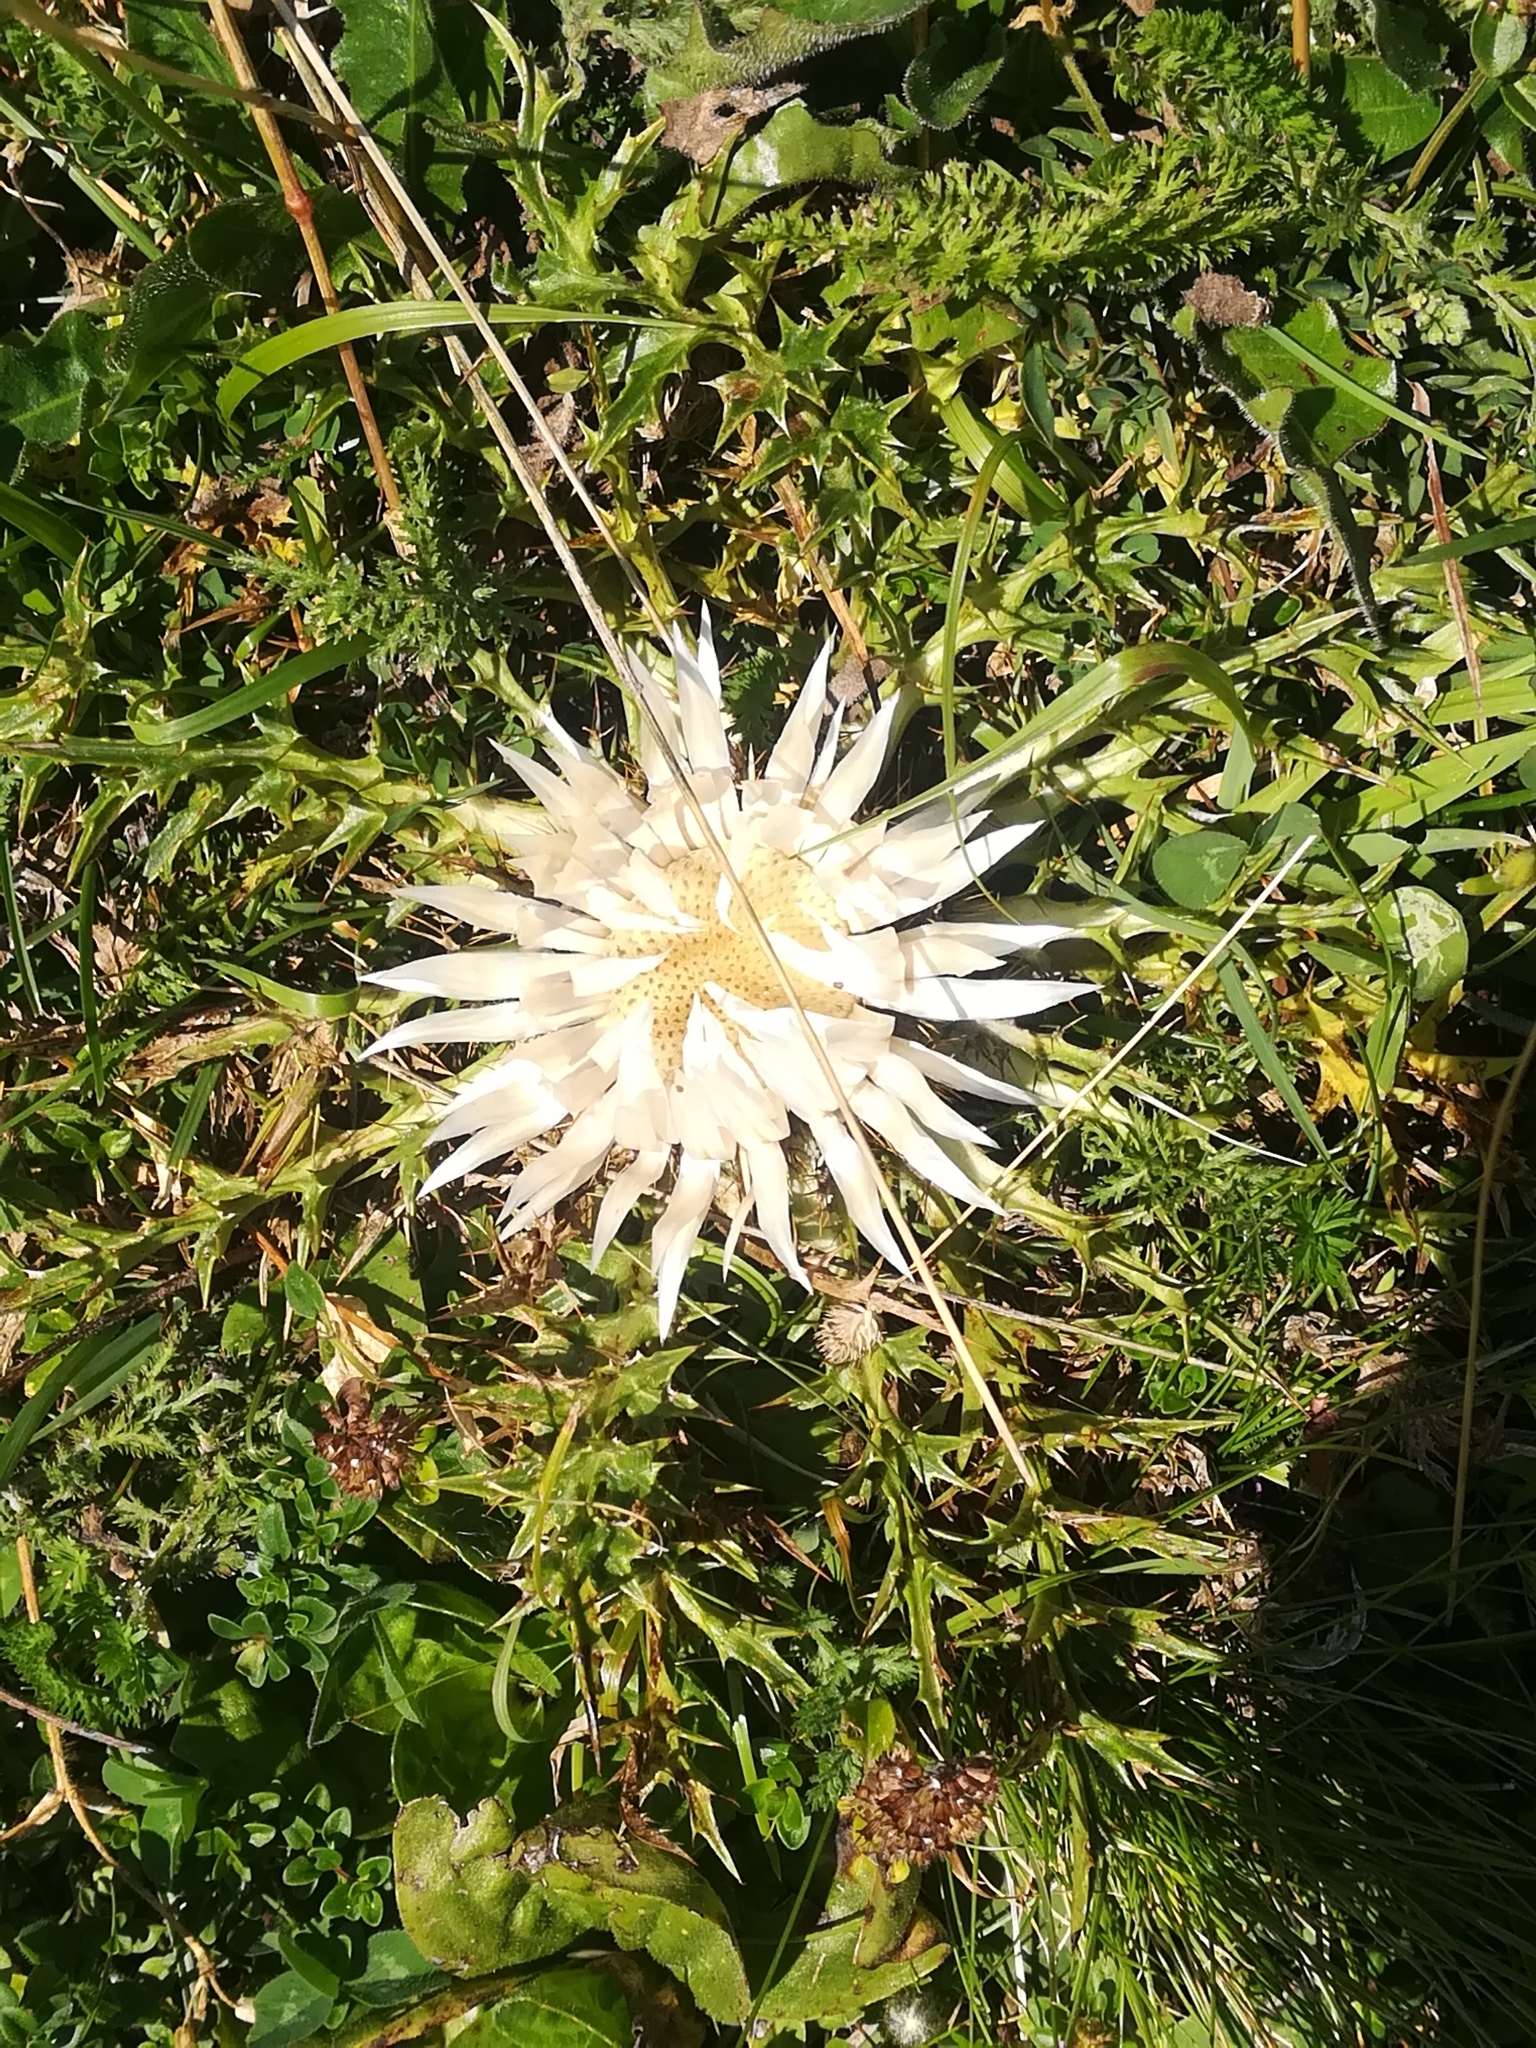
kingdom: Plantae
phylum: Tracheophyta
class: Magnoliopsida
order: Asterales
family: Asteraceae
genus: Carlina
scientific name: Carlina acaulis
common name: Stemless carline thistle
